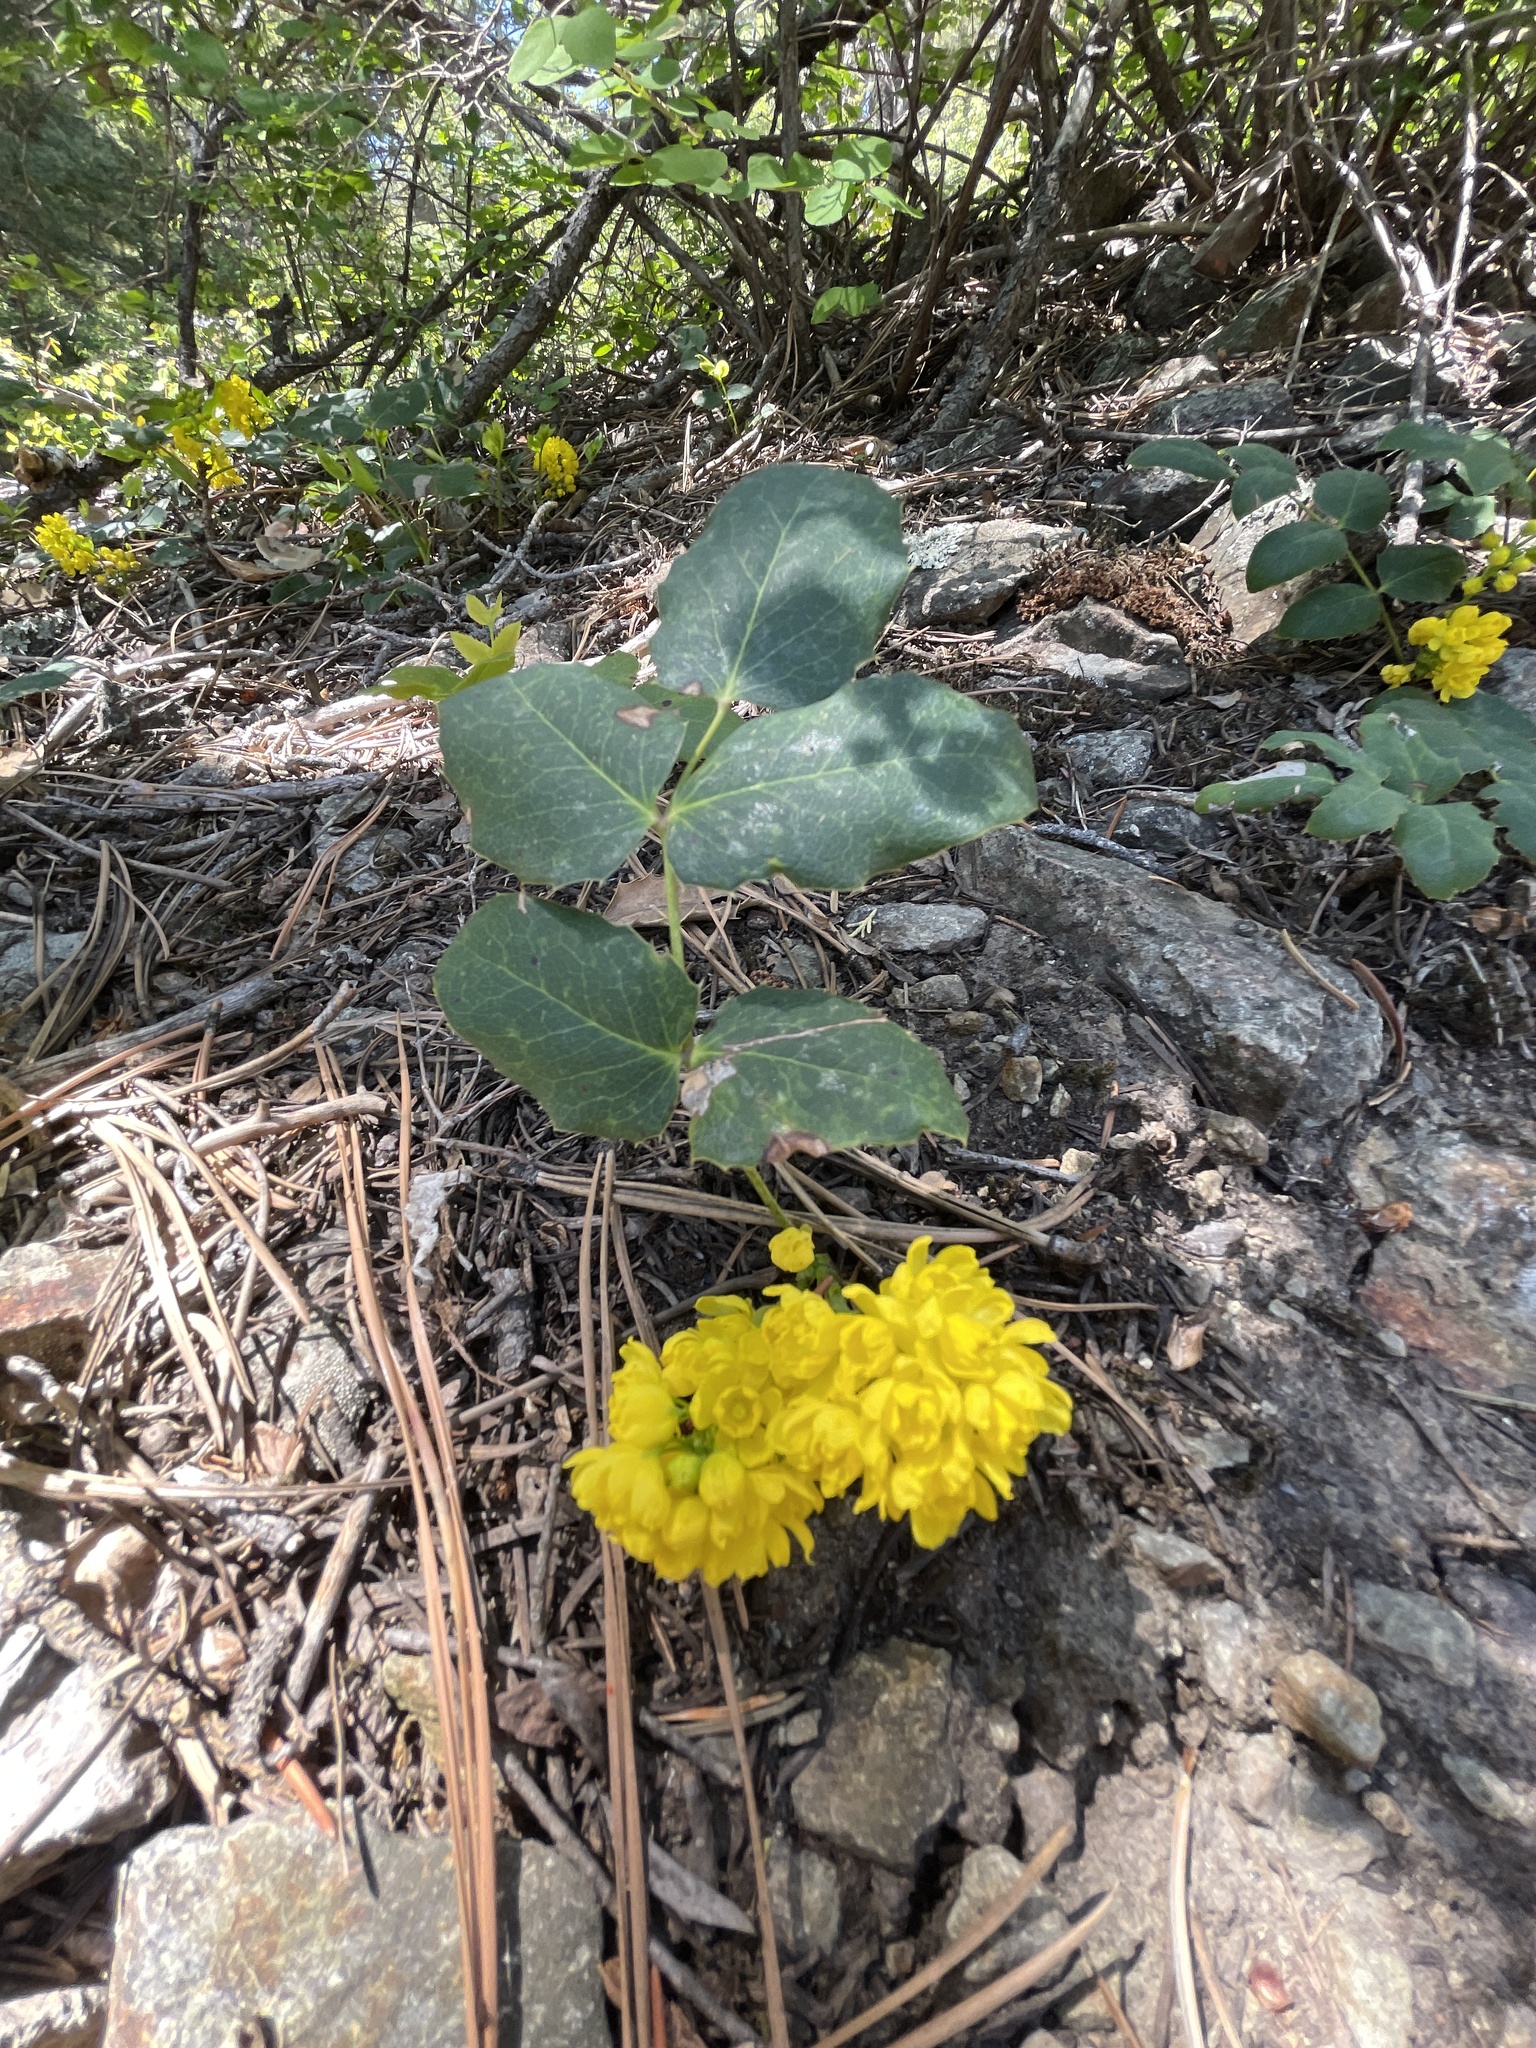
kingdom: Plantae
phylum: Tracheophyta
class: Magnoliopsida
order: Ranunculales
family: Berberidaceae
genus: Mahonia
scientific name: Mahonia repens
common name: Creeping oregon-grape
